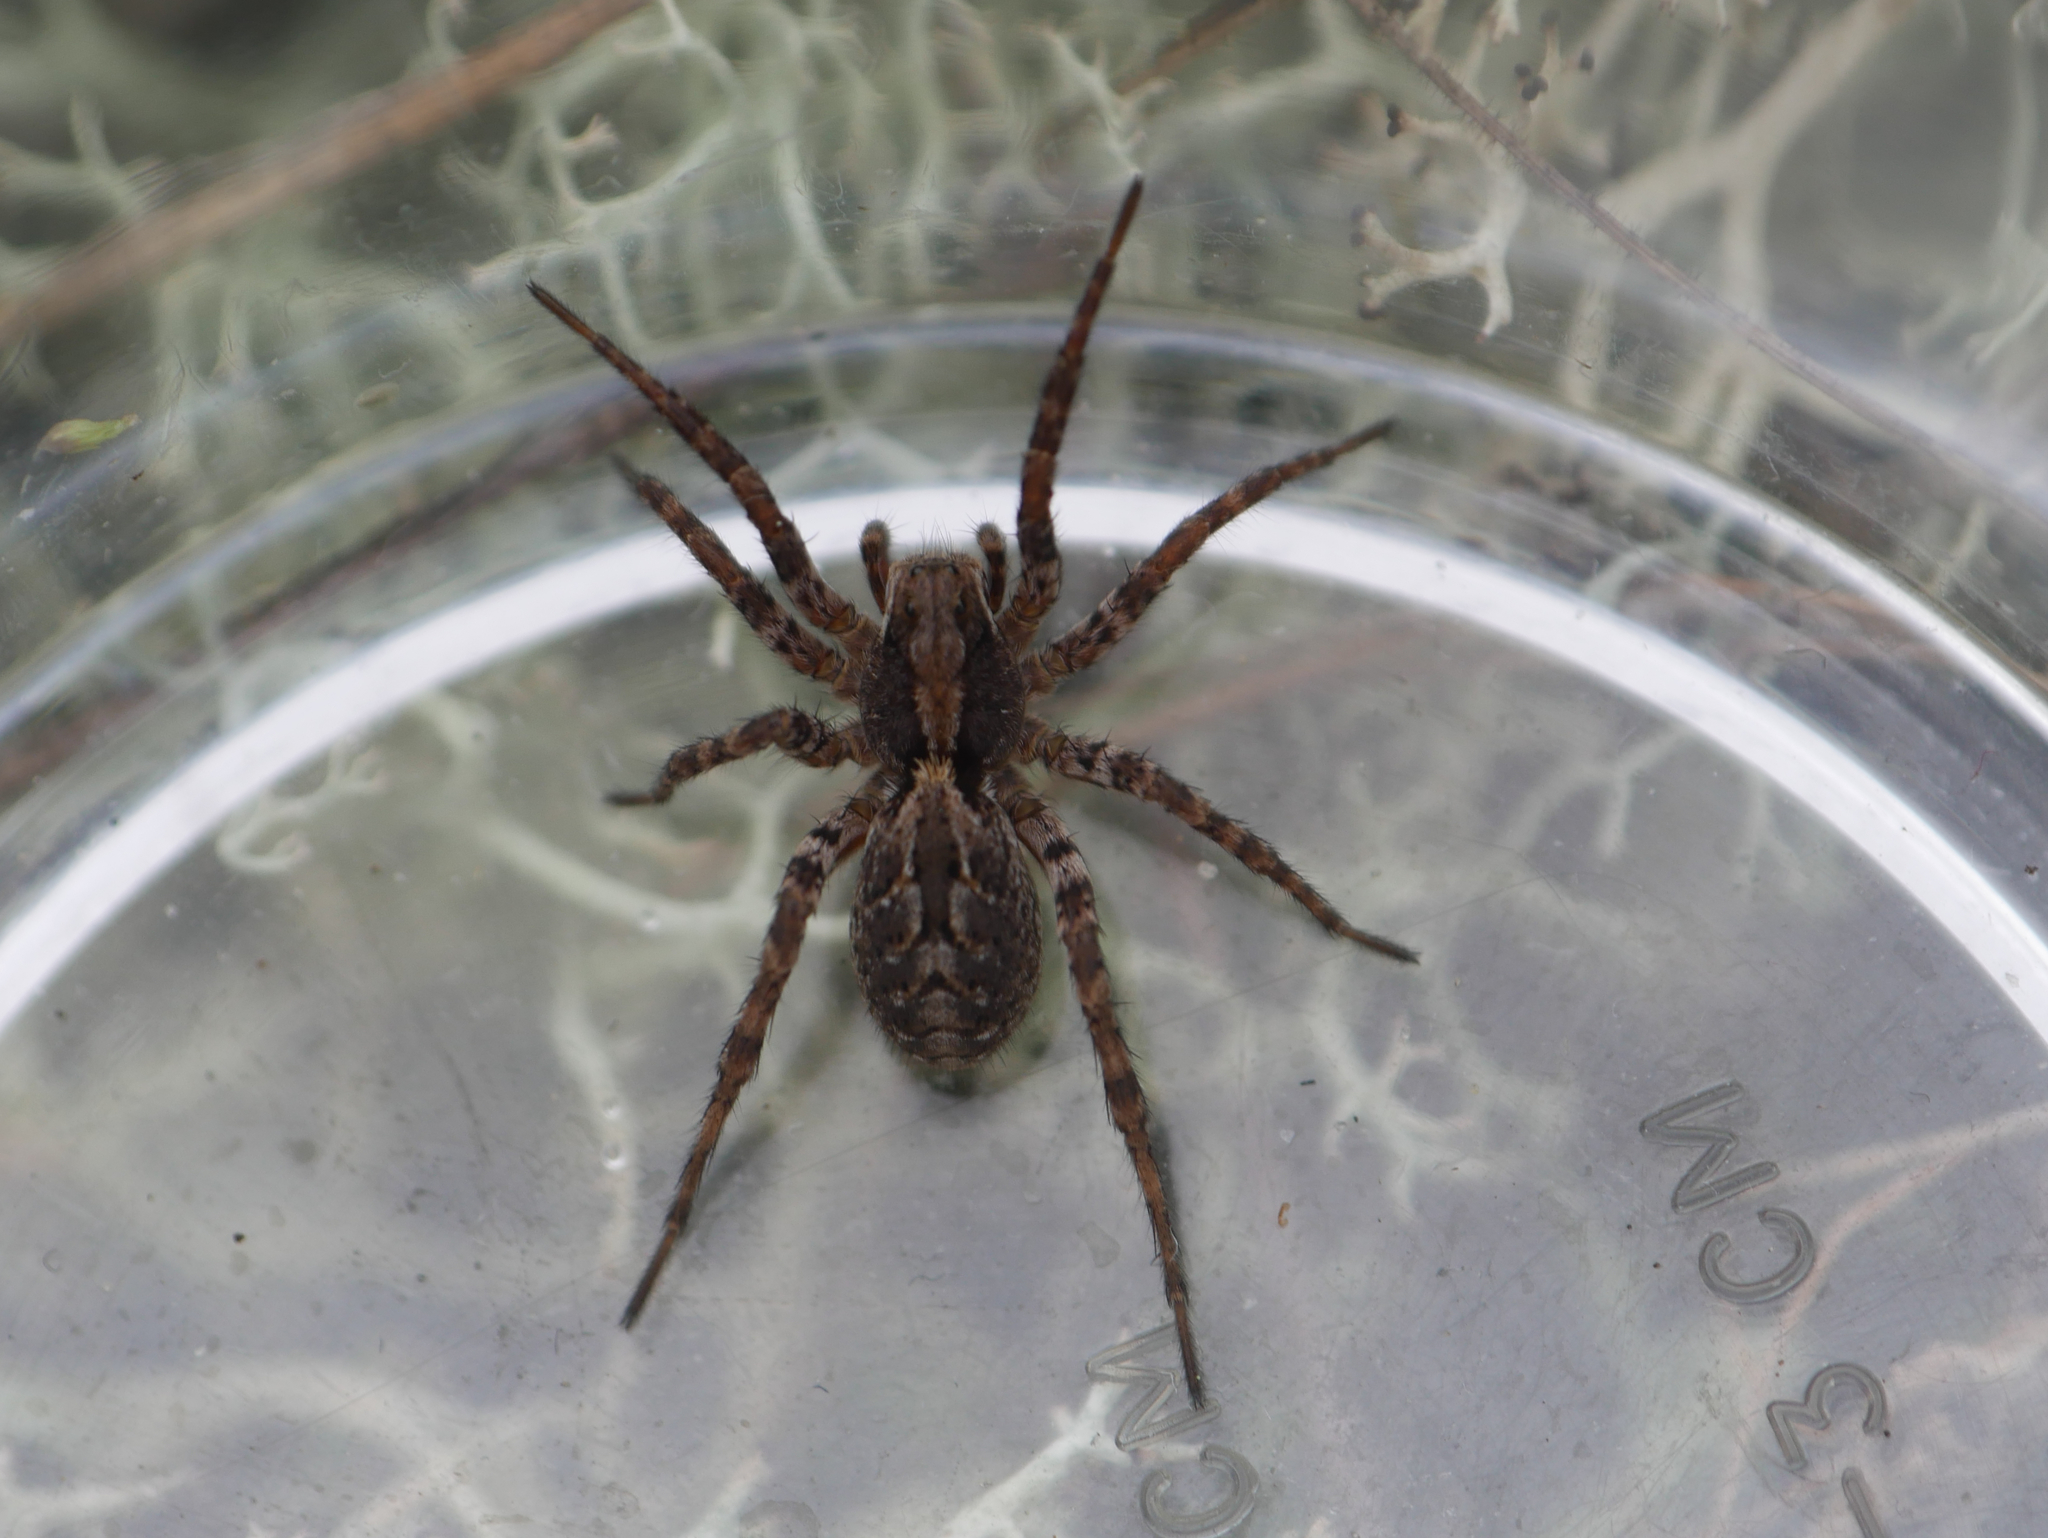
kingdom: Animalia
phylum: Arthropoda
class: Arachnida
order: Araneae
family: Lycosidae
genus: Alopecosa
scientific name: Alopecosa barbipes
